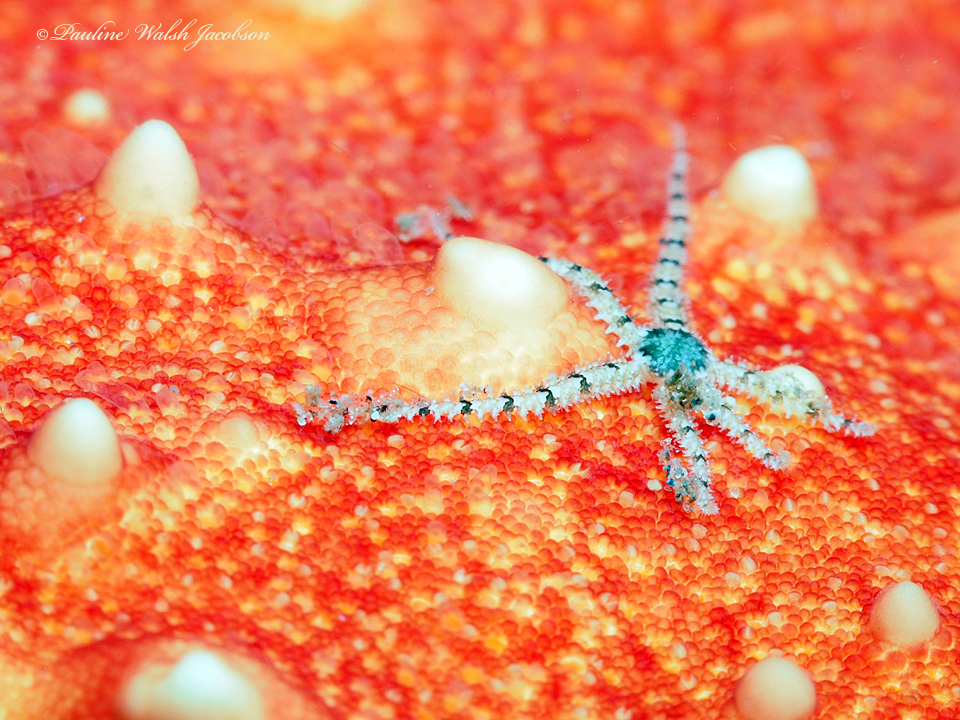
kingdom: Animalia
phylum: Echinodermata
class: Ophiuroidea
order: Amphilepidida
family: Ophiactidae
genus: Ophiactis
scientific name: Ophiactis savignyi
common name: Savigny's brittle star
